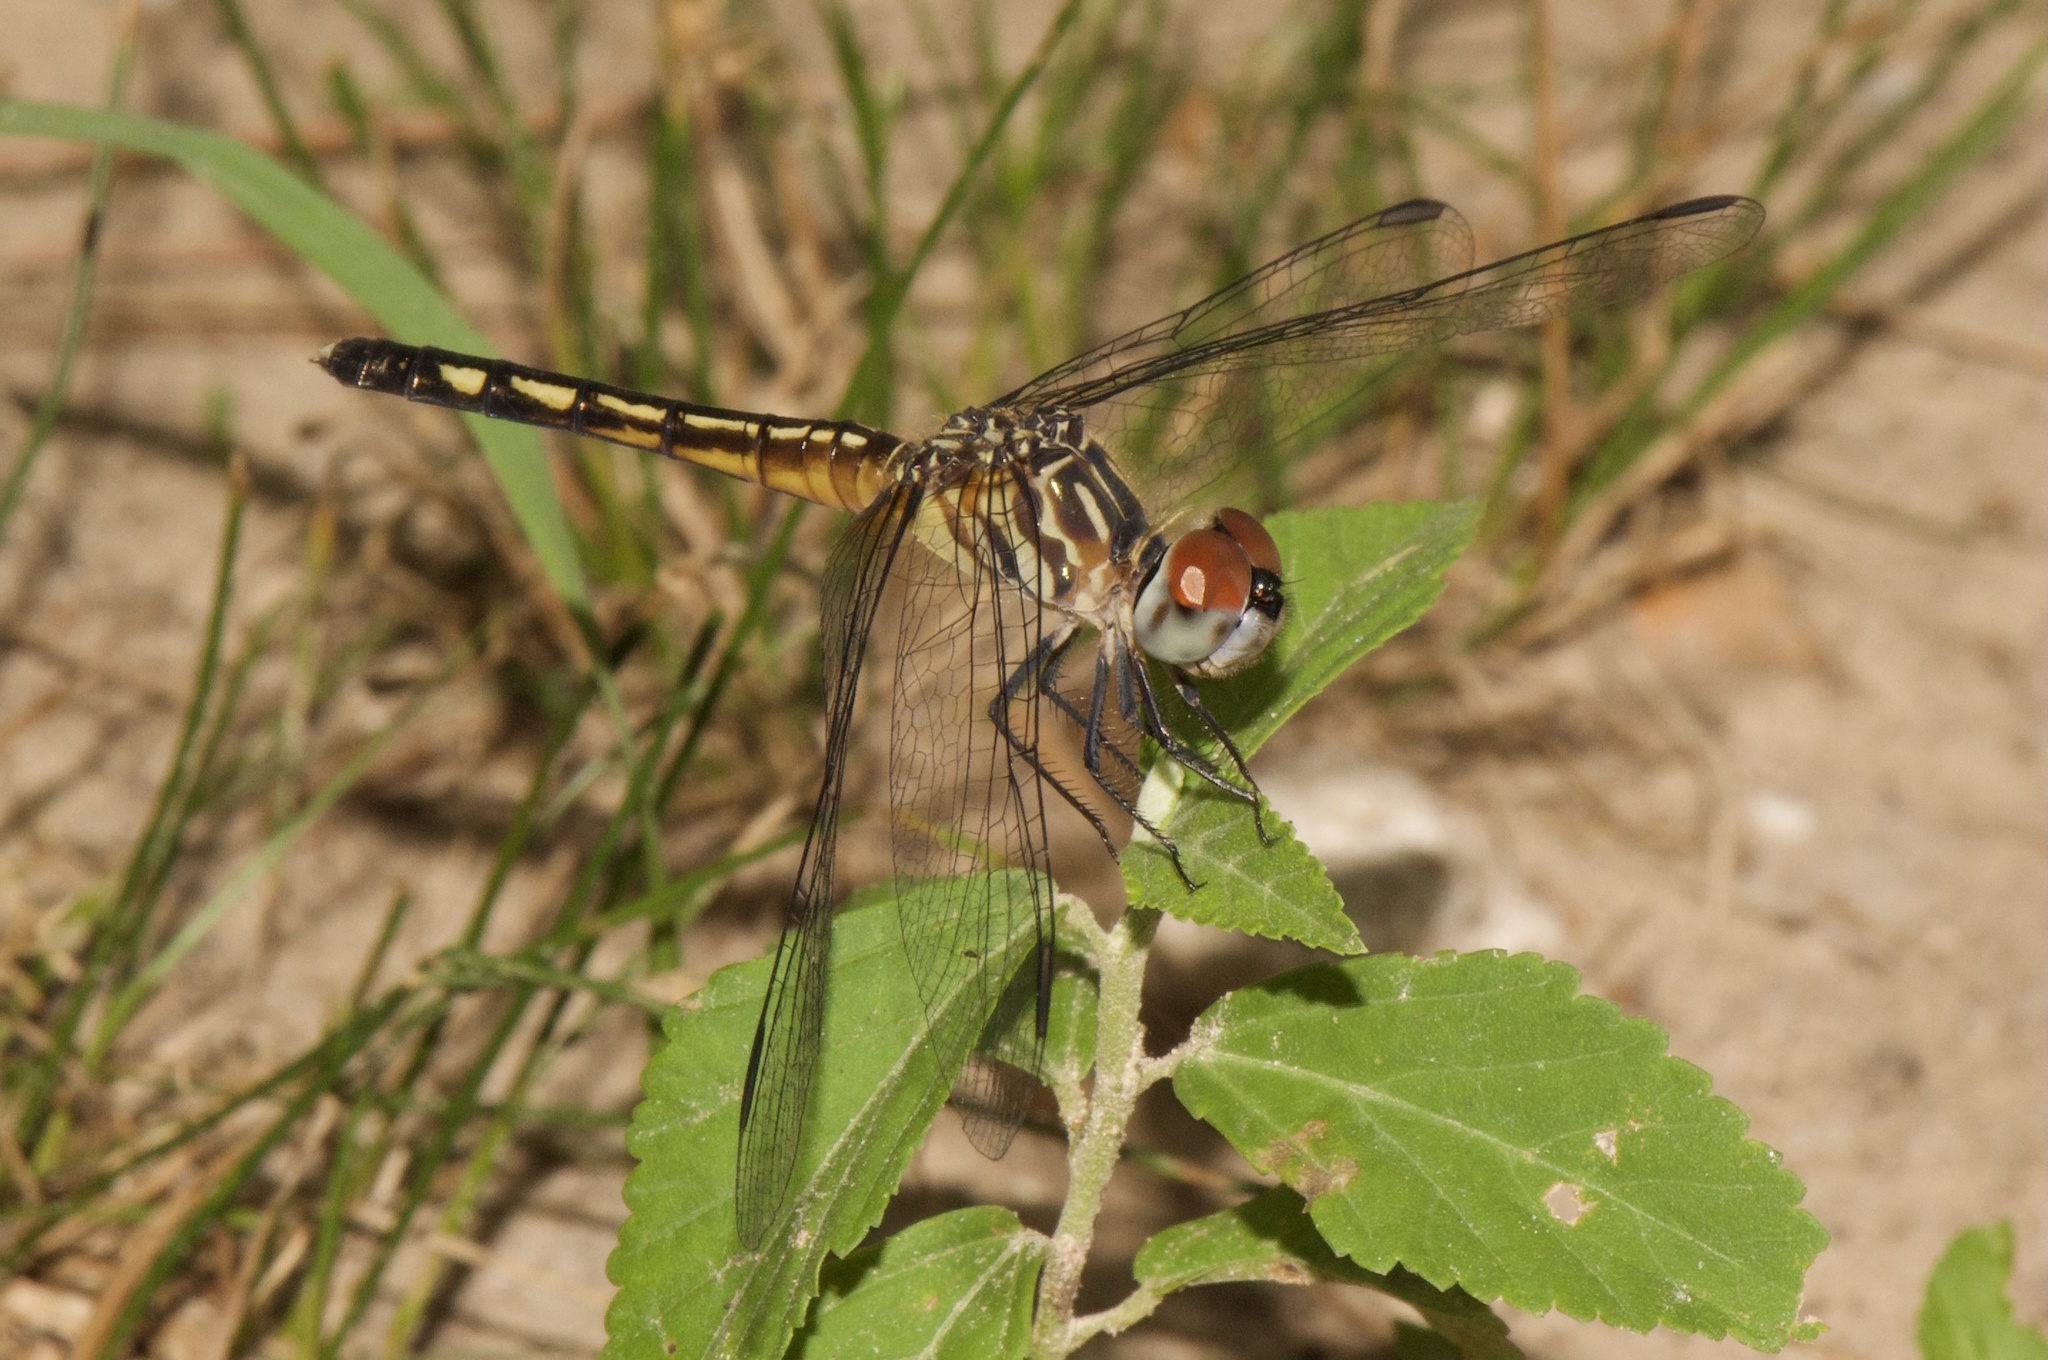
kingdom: Animalia
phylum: Arthropoda
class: Insecta
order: Odonata
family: Libellulidae
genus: Pachydiplax
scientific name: Pachydiplax longipennis
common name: Blue dasher
